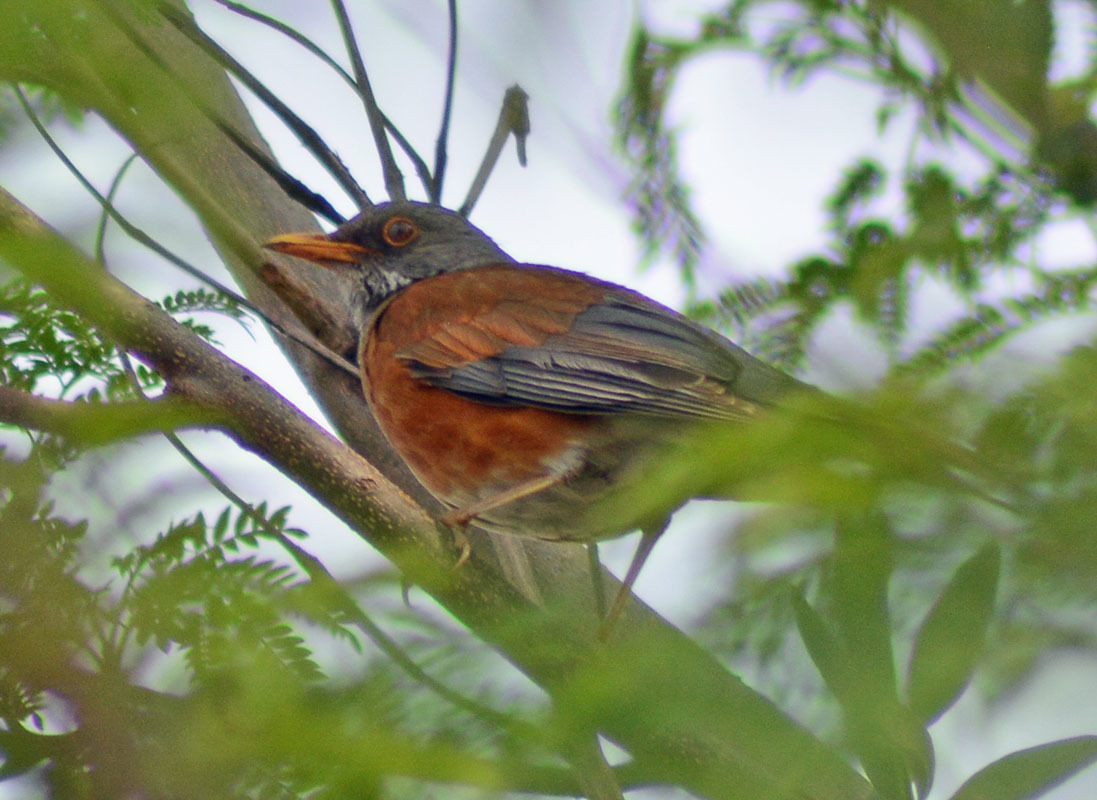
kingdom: Animalia
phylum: Chordata
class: Aves
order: Passeriformes
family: Turdidae
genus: Turdus
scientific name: Turdus rufopalliatus
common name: Rufous-backed robin
